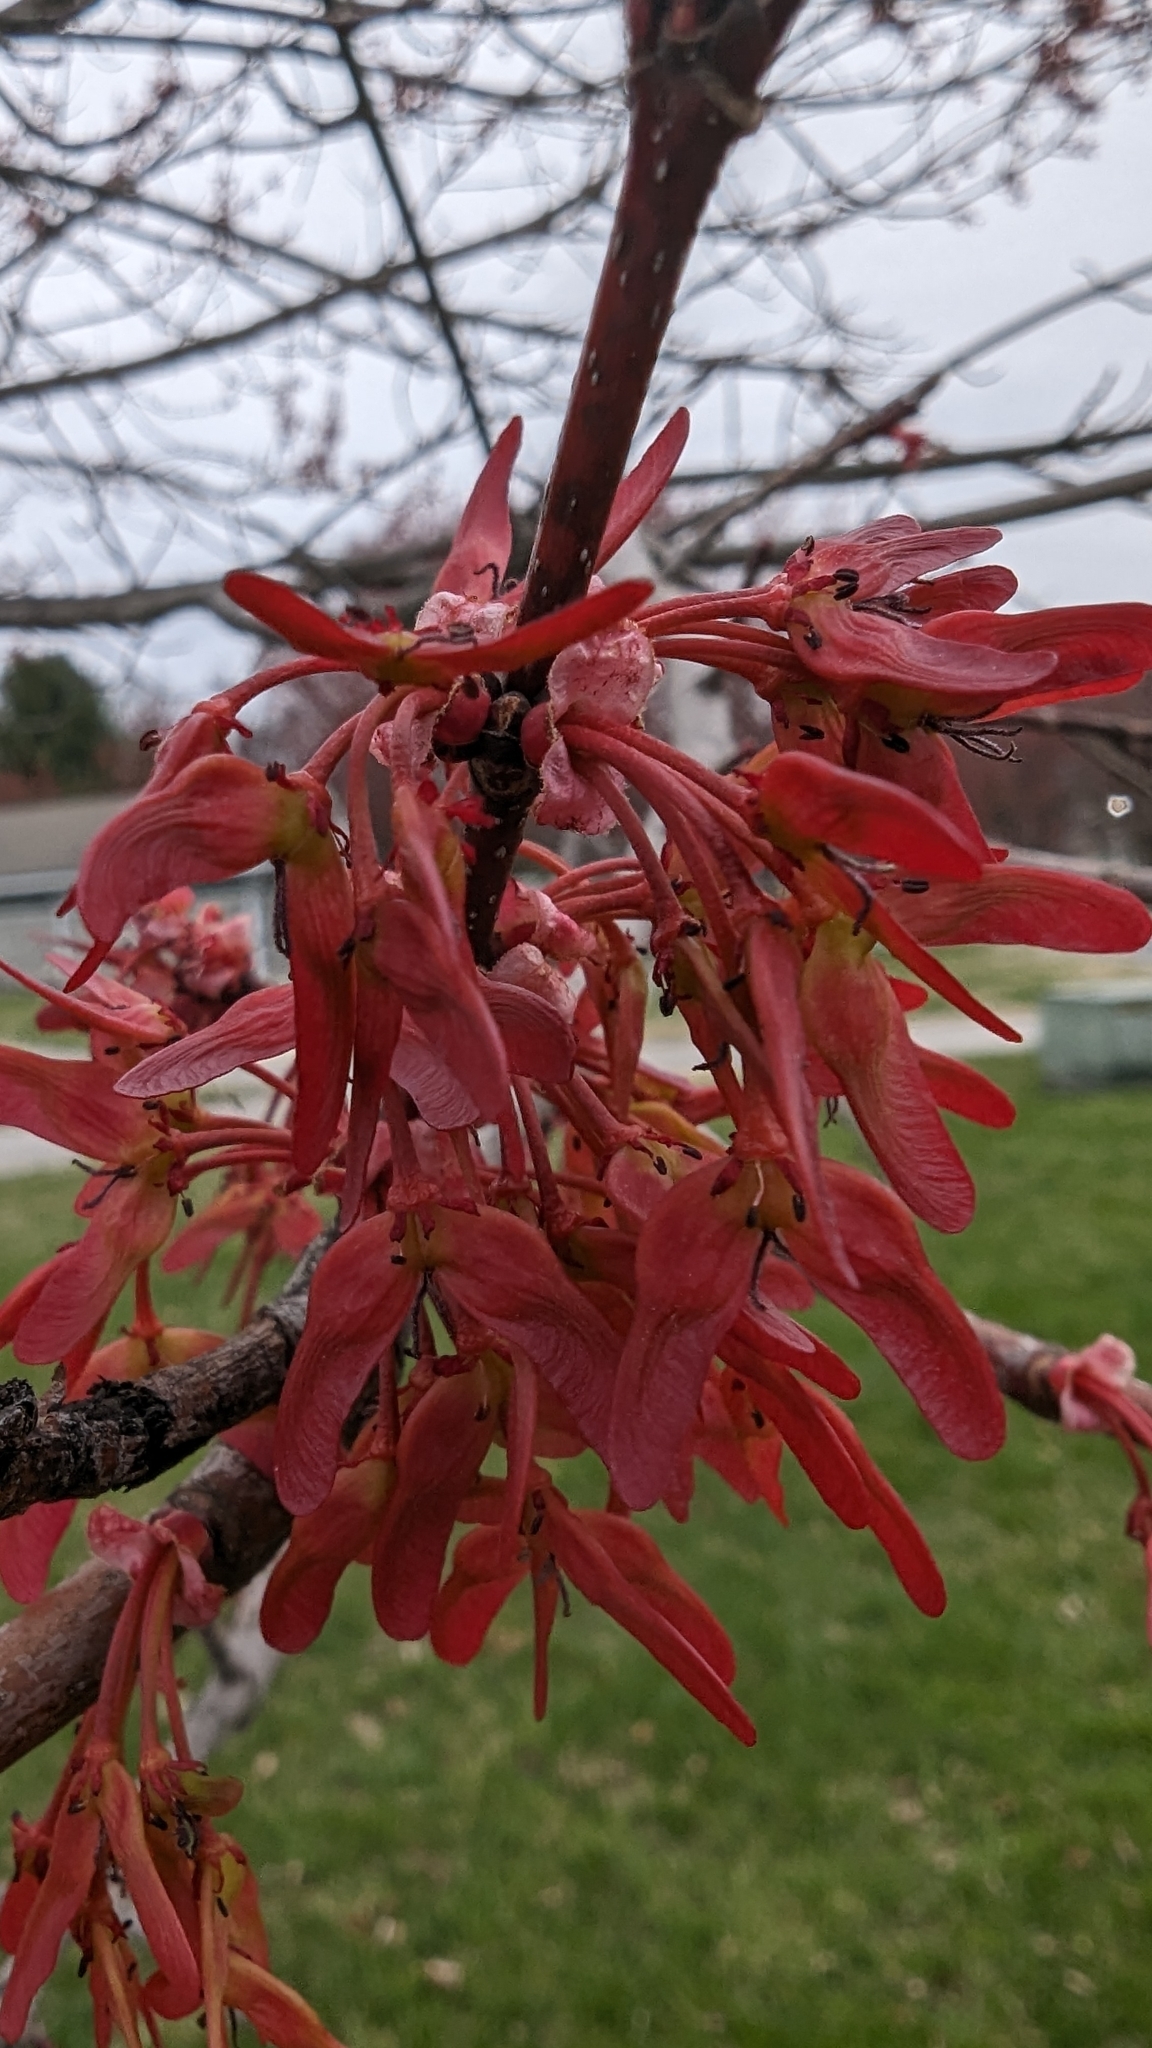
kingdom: Plantae
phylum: Tracheophyta
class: Magnoliopsida
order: Sapindales
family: Sapindaceae
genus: Acer
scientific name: Acer rubrum
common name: Red maple
